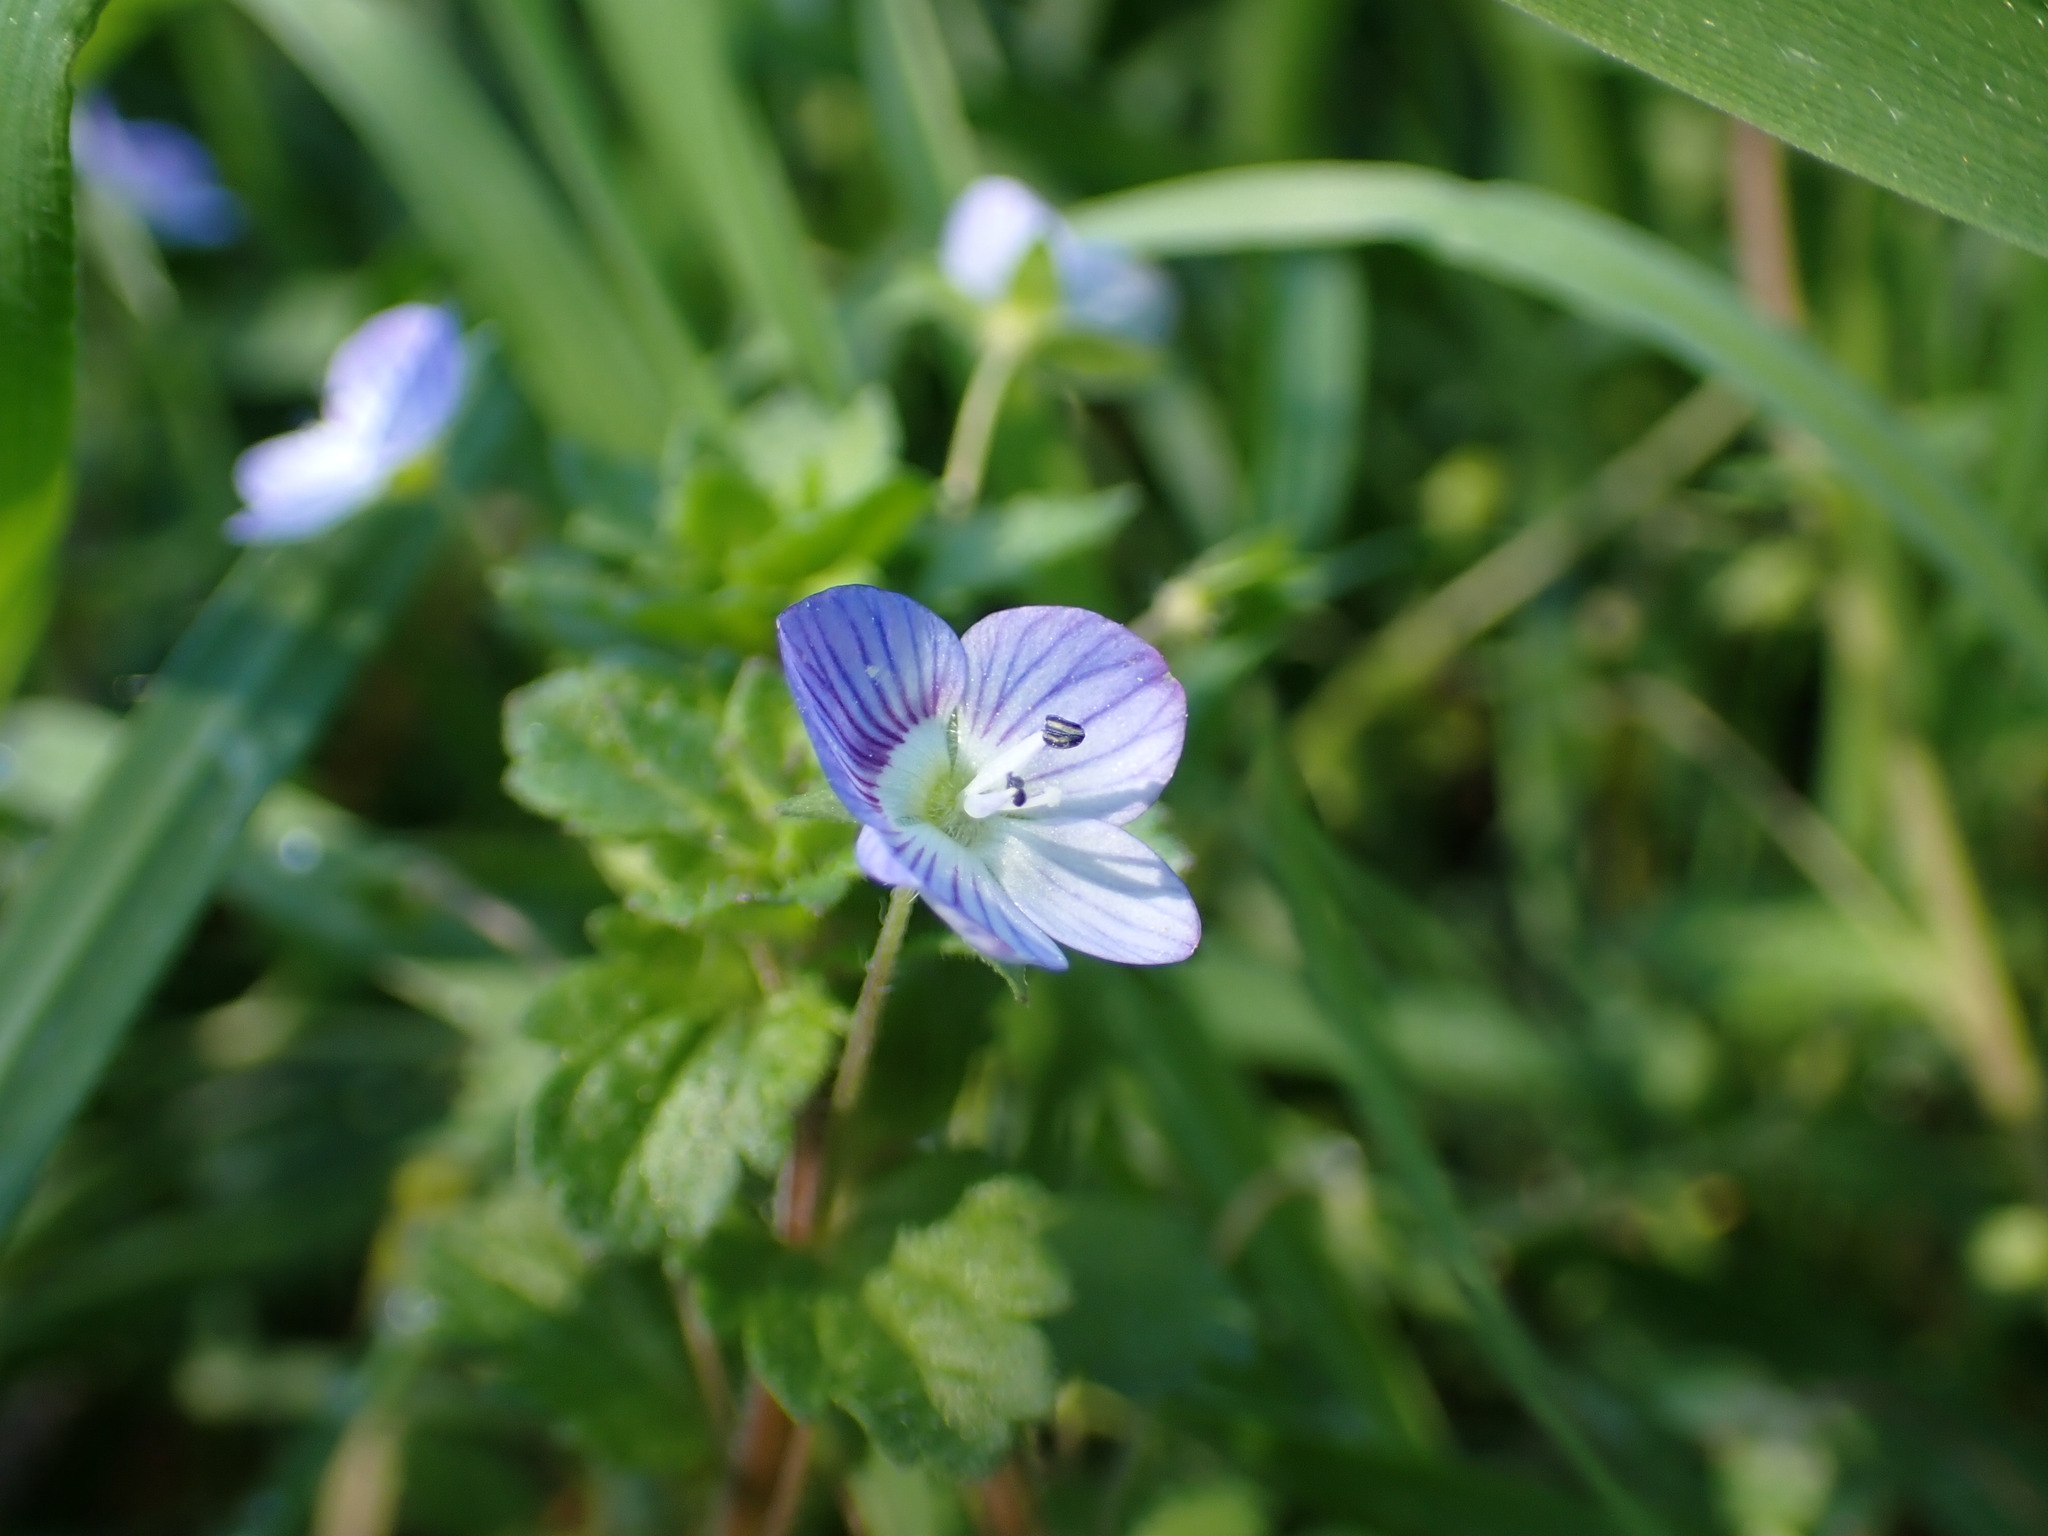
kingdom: Plantae
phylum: Tracheophyta
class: Magnoliopsida
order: Lamiales
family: Plantaginaceae
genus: Veronica
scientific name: Veronica persica
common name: Common field-speedwell
